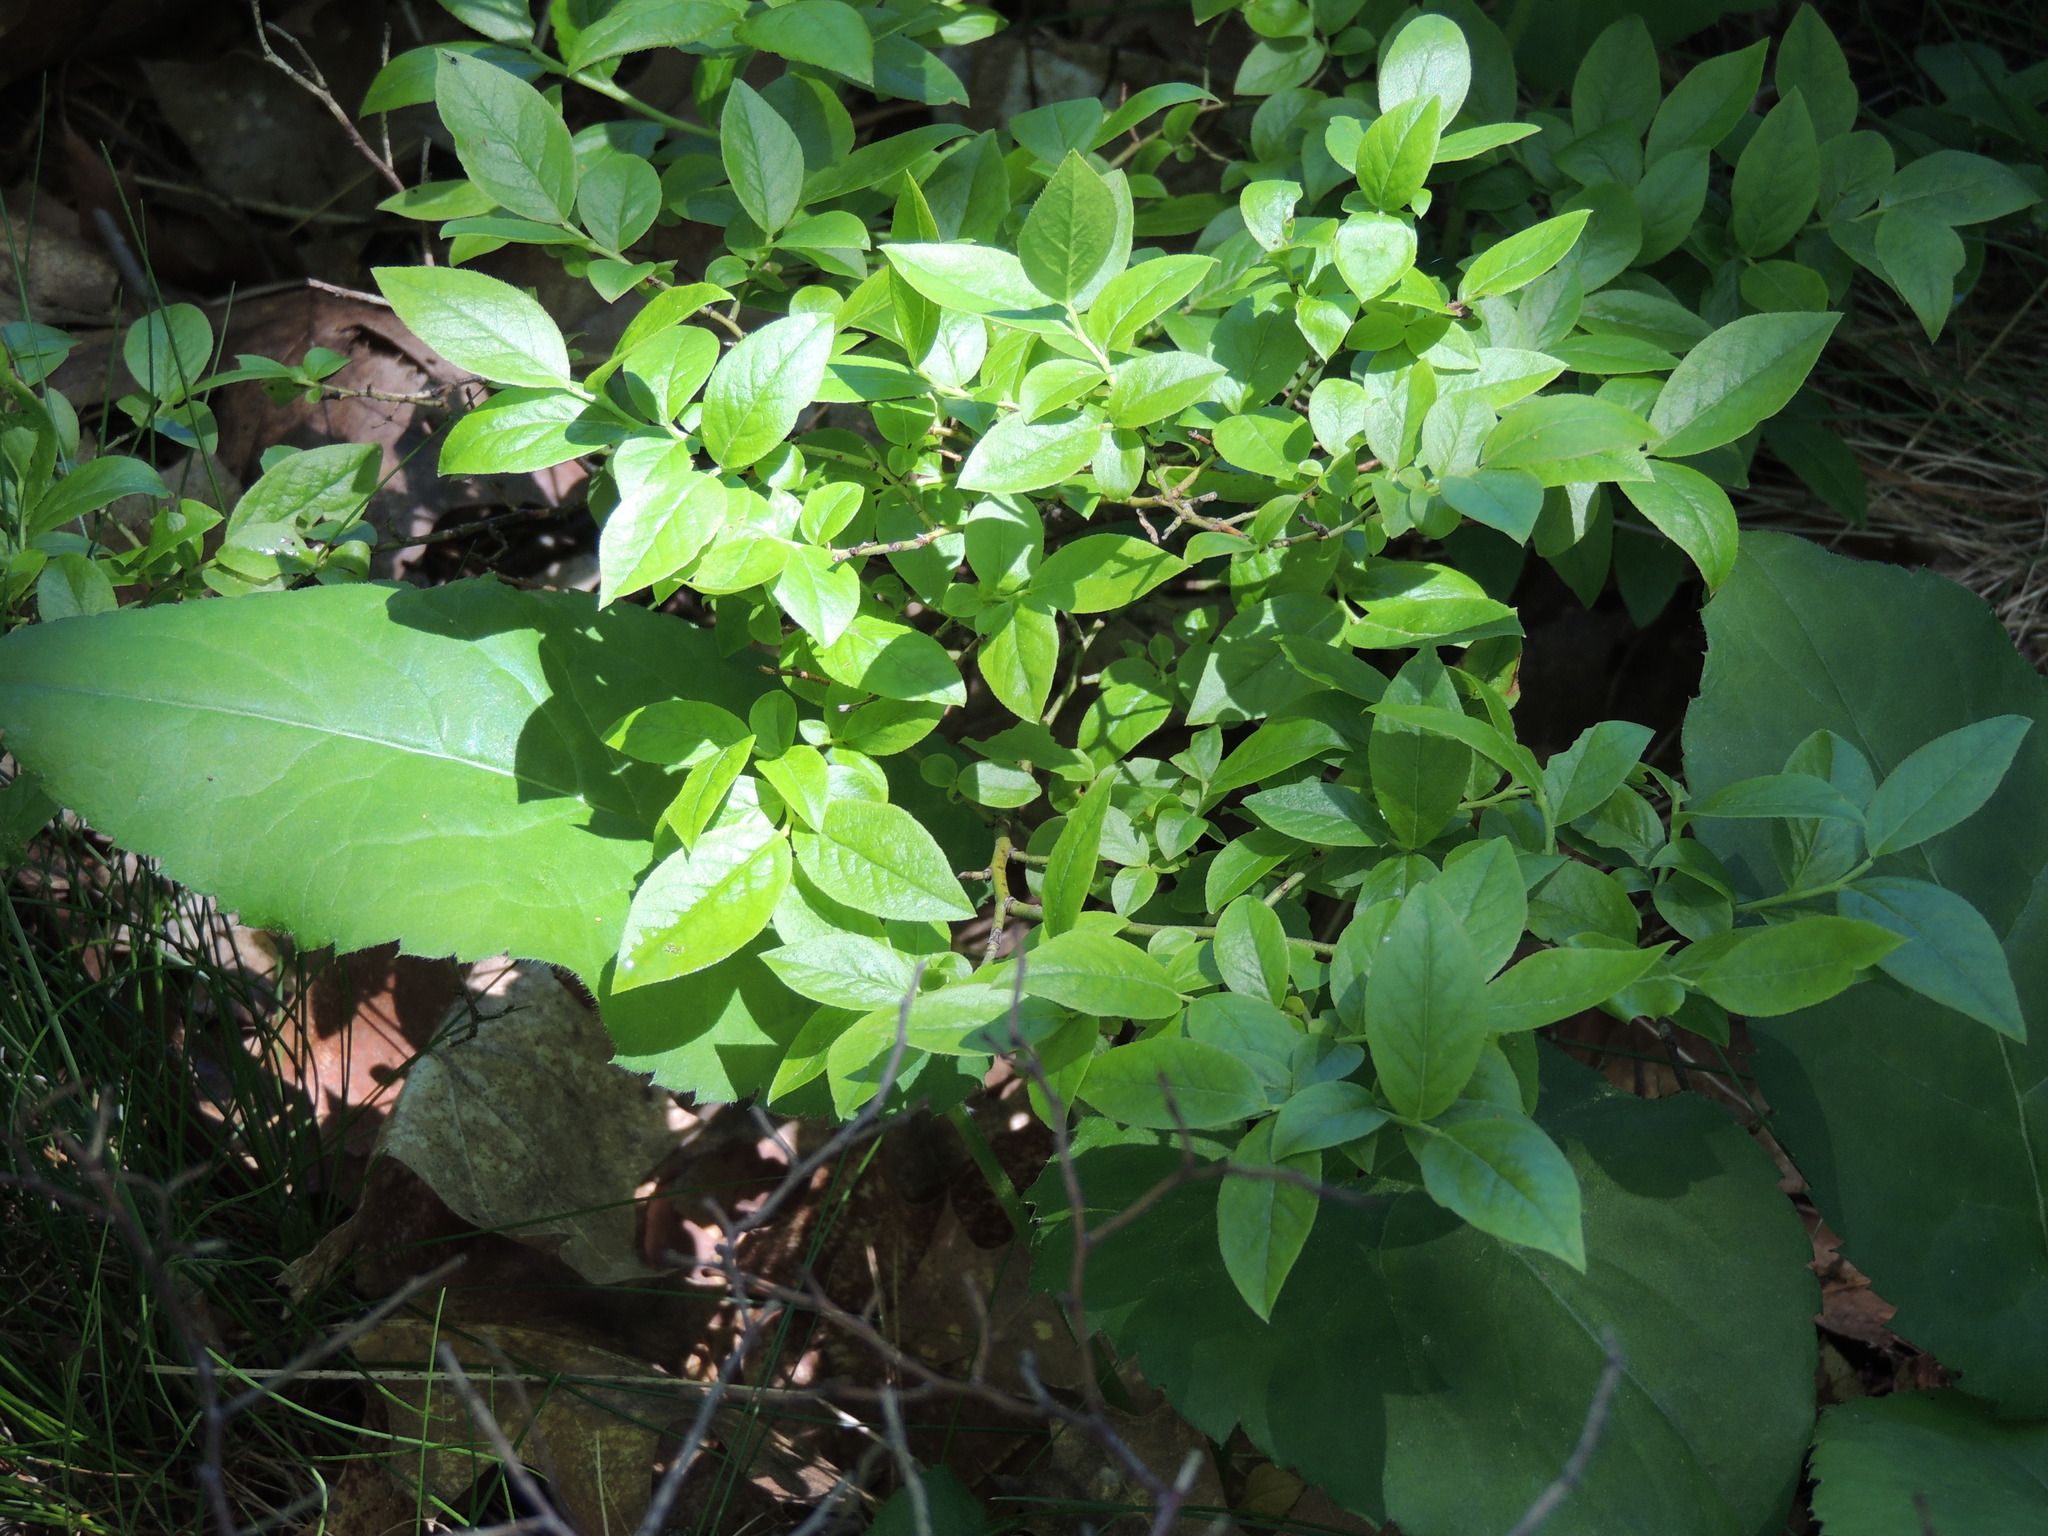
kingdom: Plantae
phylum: Tracheophyta
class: Magnoliopsida
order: Ericales
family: Ericaceae
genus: Vaccinium
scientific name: Vaccinium angustifolium
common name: Early lowbush blueberry
